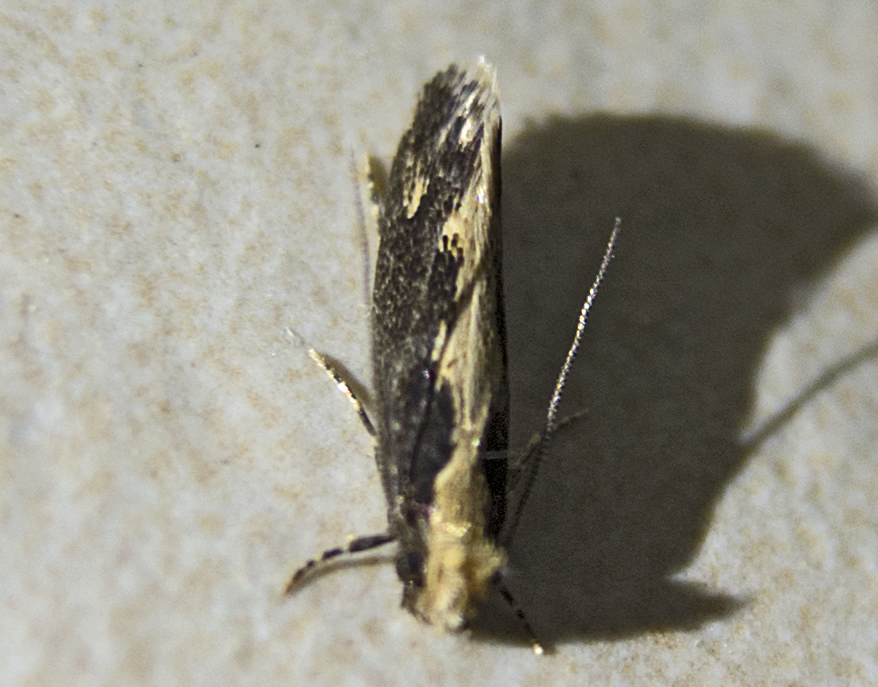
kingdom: Animalia
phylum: Arthropoda
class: Insecta
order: Lepidoptera
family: Tineidae
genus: Monopis
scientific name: Monopis crocicapitella
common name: Moth
